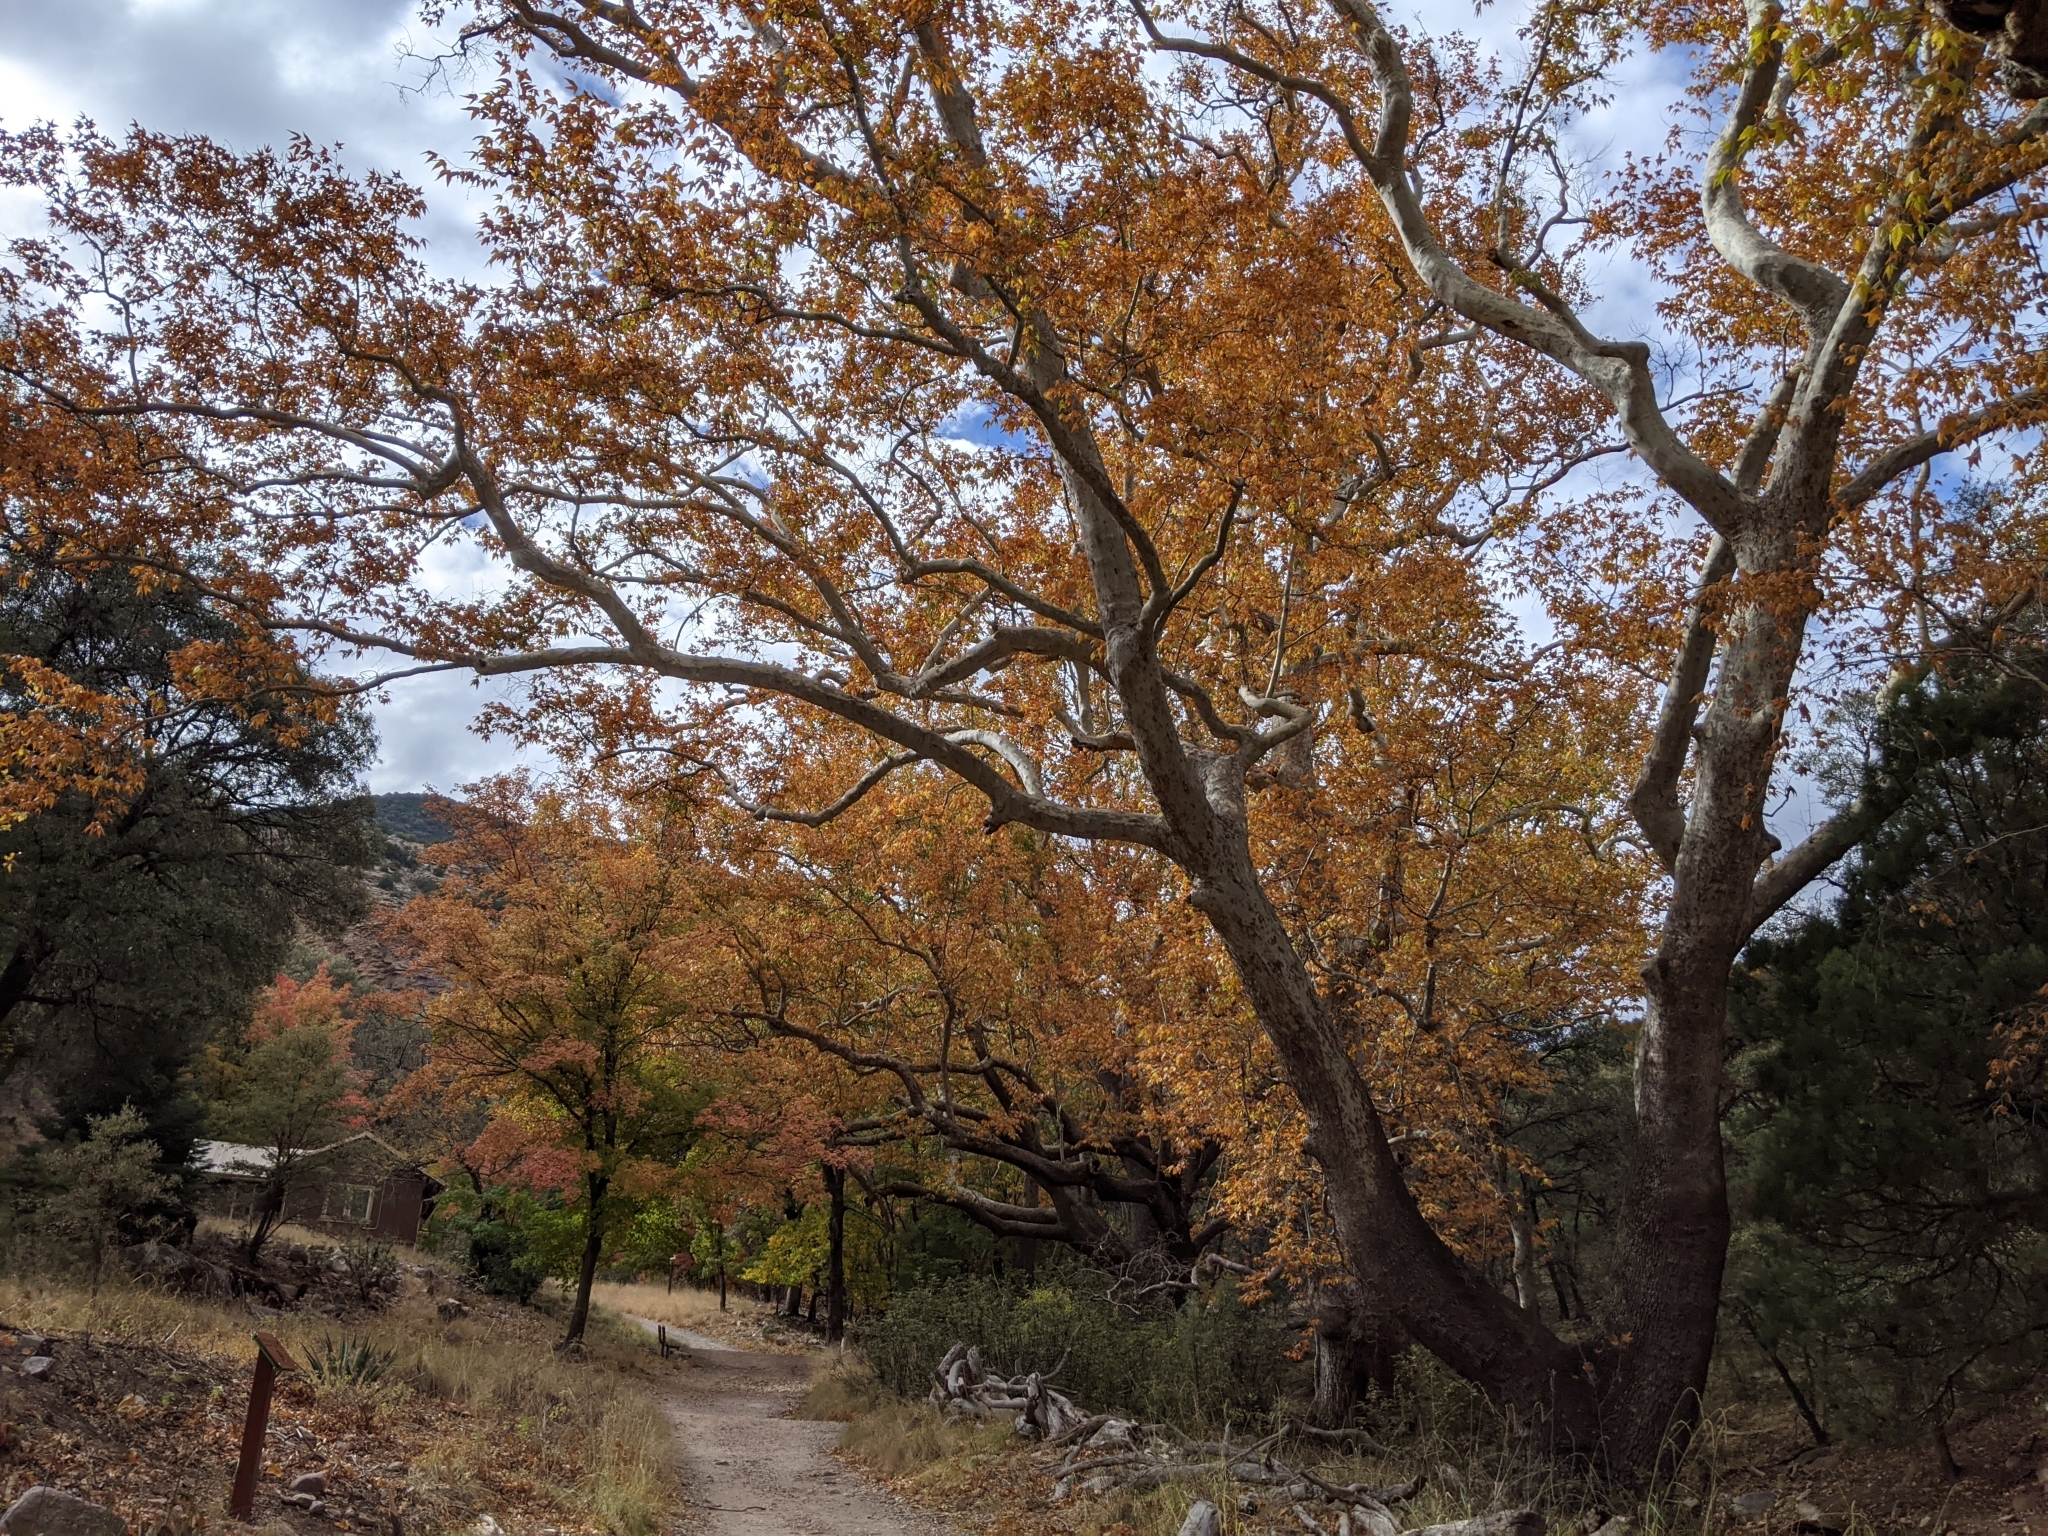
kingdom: Plantae
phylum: Tracheophyta
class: Magnoliopsida
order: Proteales
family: Platanaceae
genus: Platanus
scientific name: Platanus wrightii
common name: Arizona sycamore
